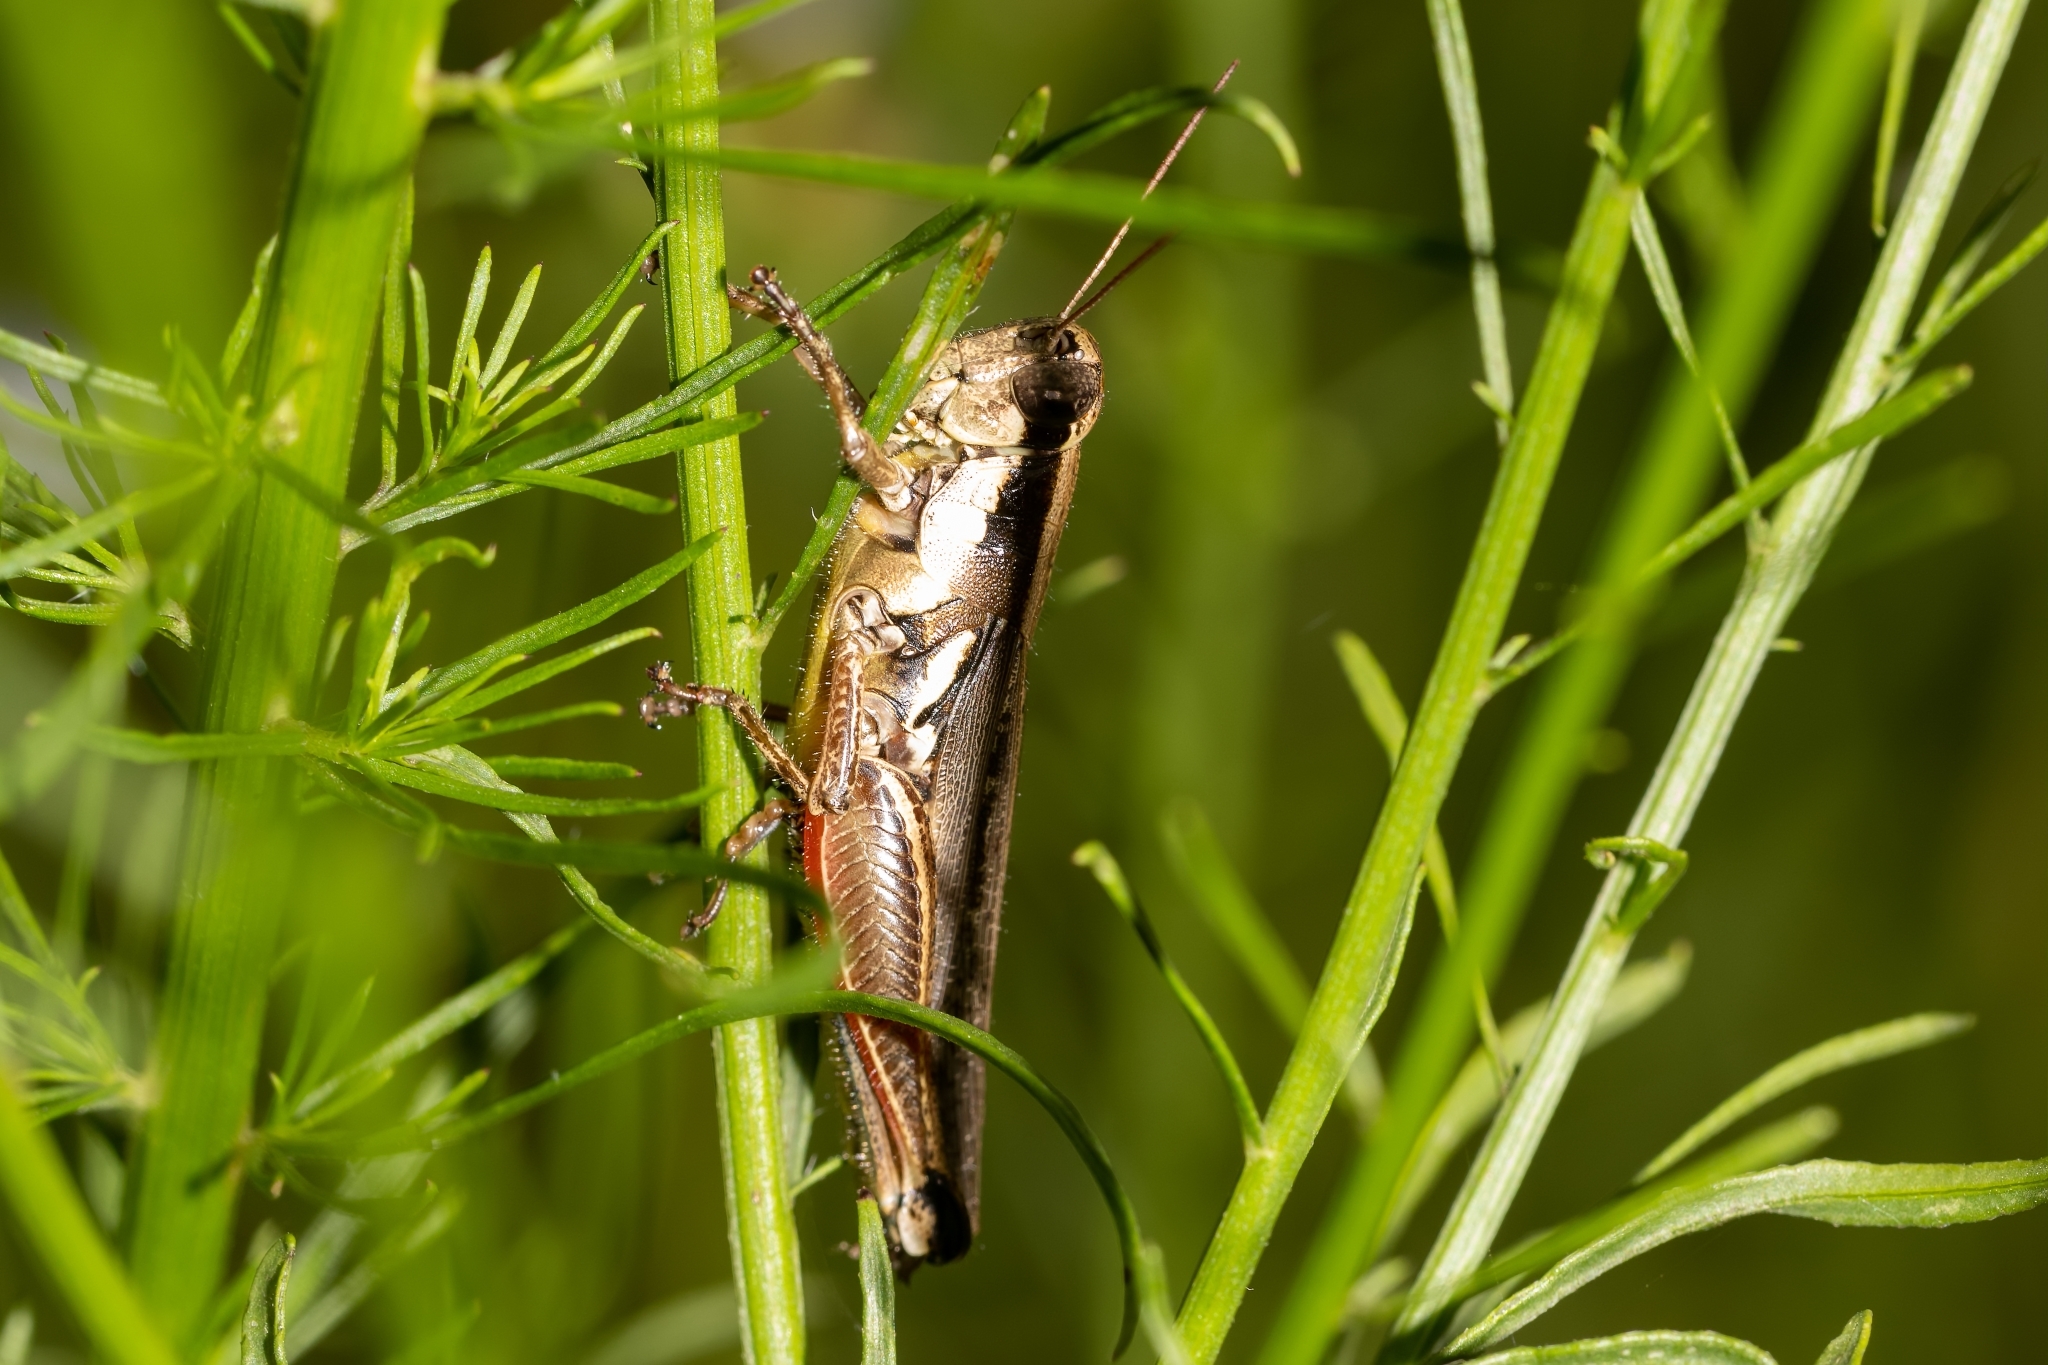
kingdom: Animalia
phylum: Arthropoda
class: Insecta
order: Orthoptera
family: Acrididae
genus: Paroxya
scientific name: Paroxya atlantica
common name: Atlantic grasshopper
